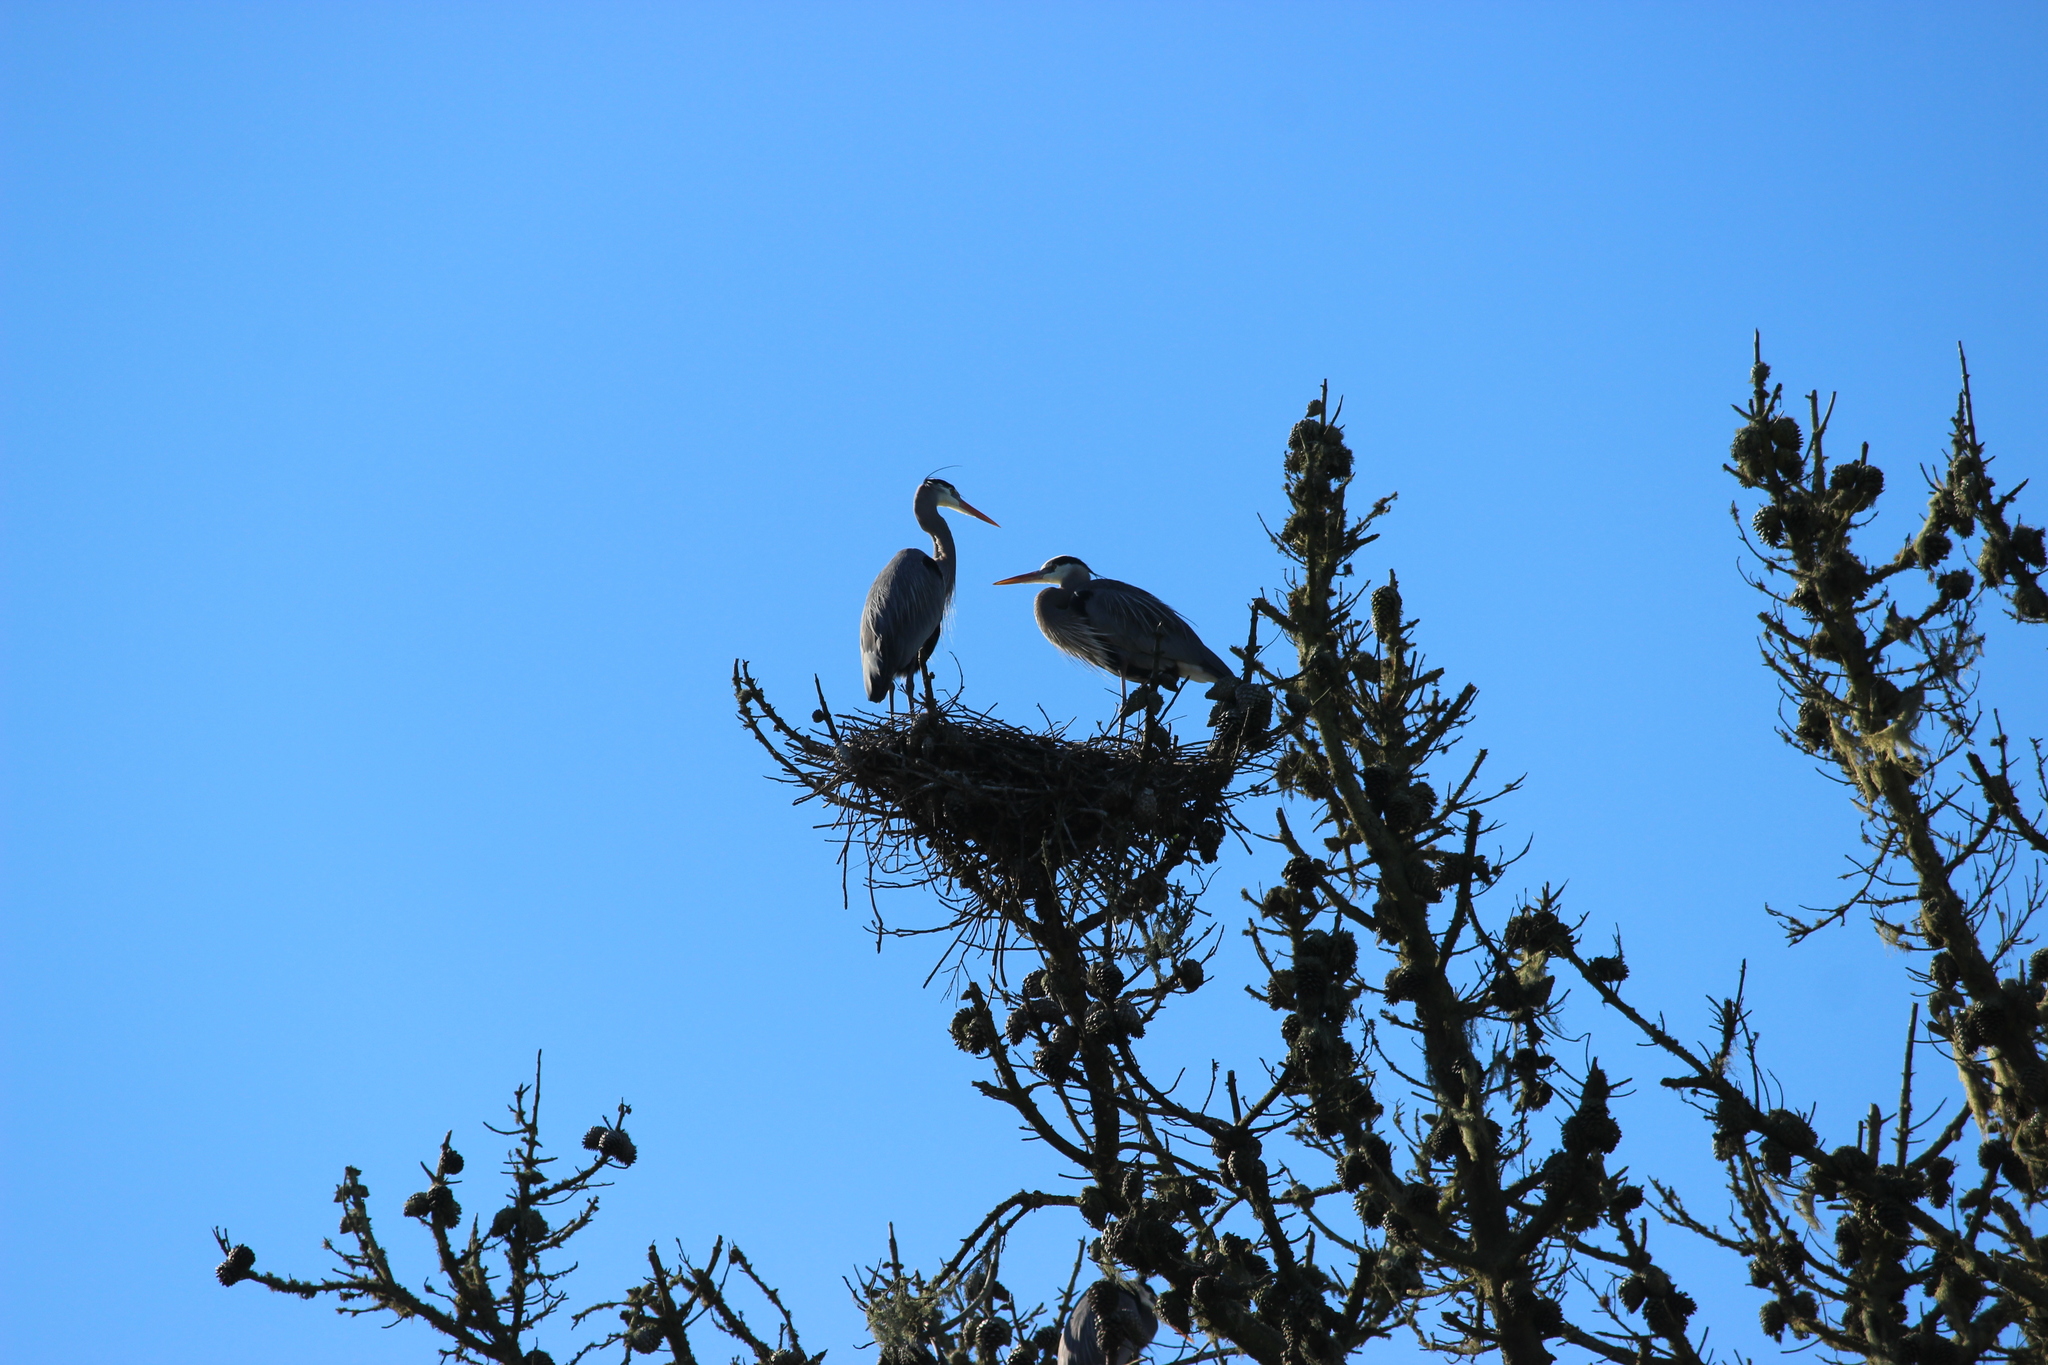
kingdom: Animalia
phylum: Chordata
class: Aves
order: Pelecaniformes
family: Ardeidae
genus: Ardea
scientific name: Ardea herodias
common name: Great blue heron
